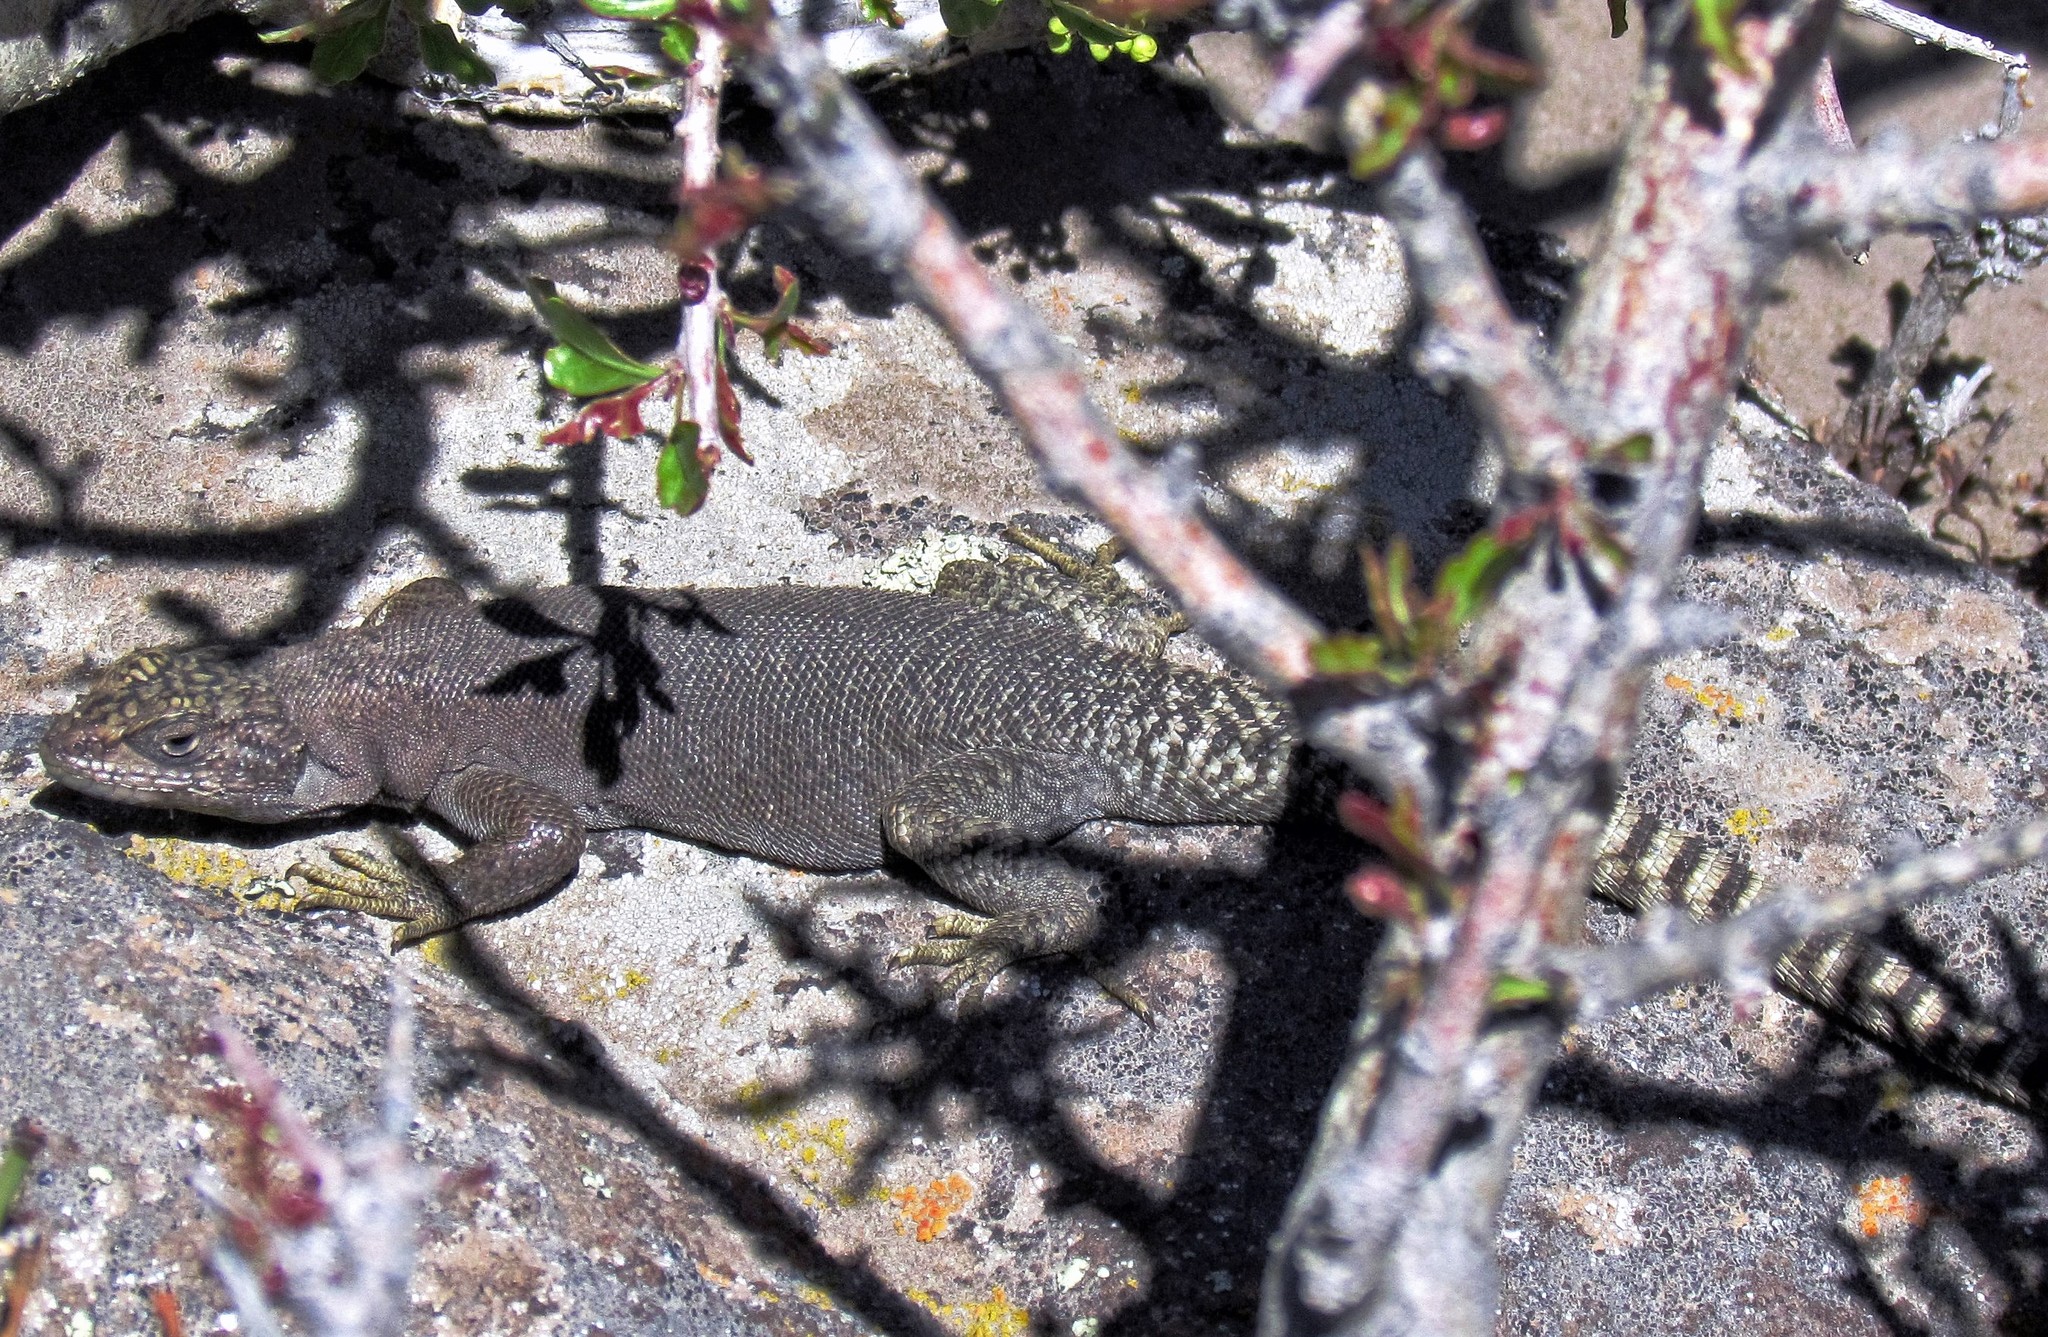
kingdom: Animalia
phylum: Chordata
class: Squamata
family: Liolaemidae
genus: Liolaemus
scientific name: Liolaemus petrophilus
